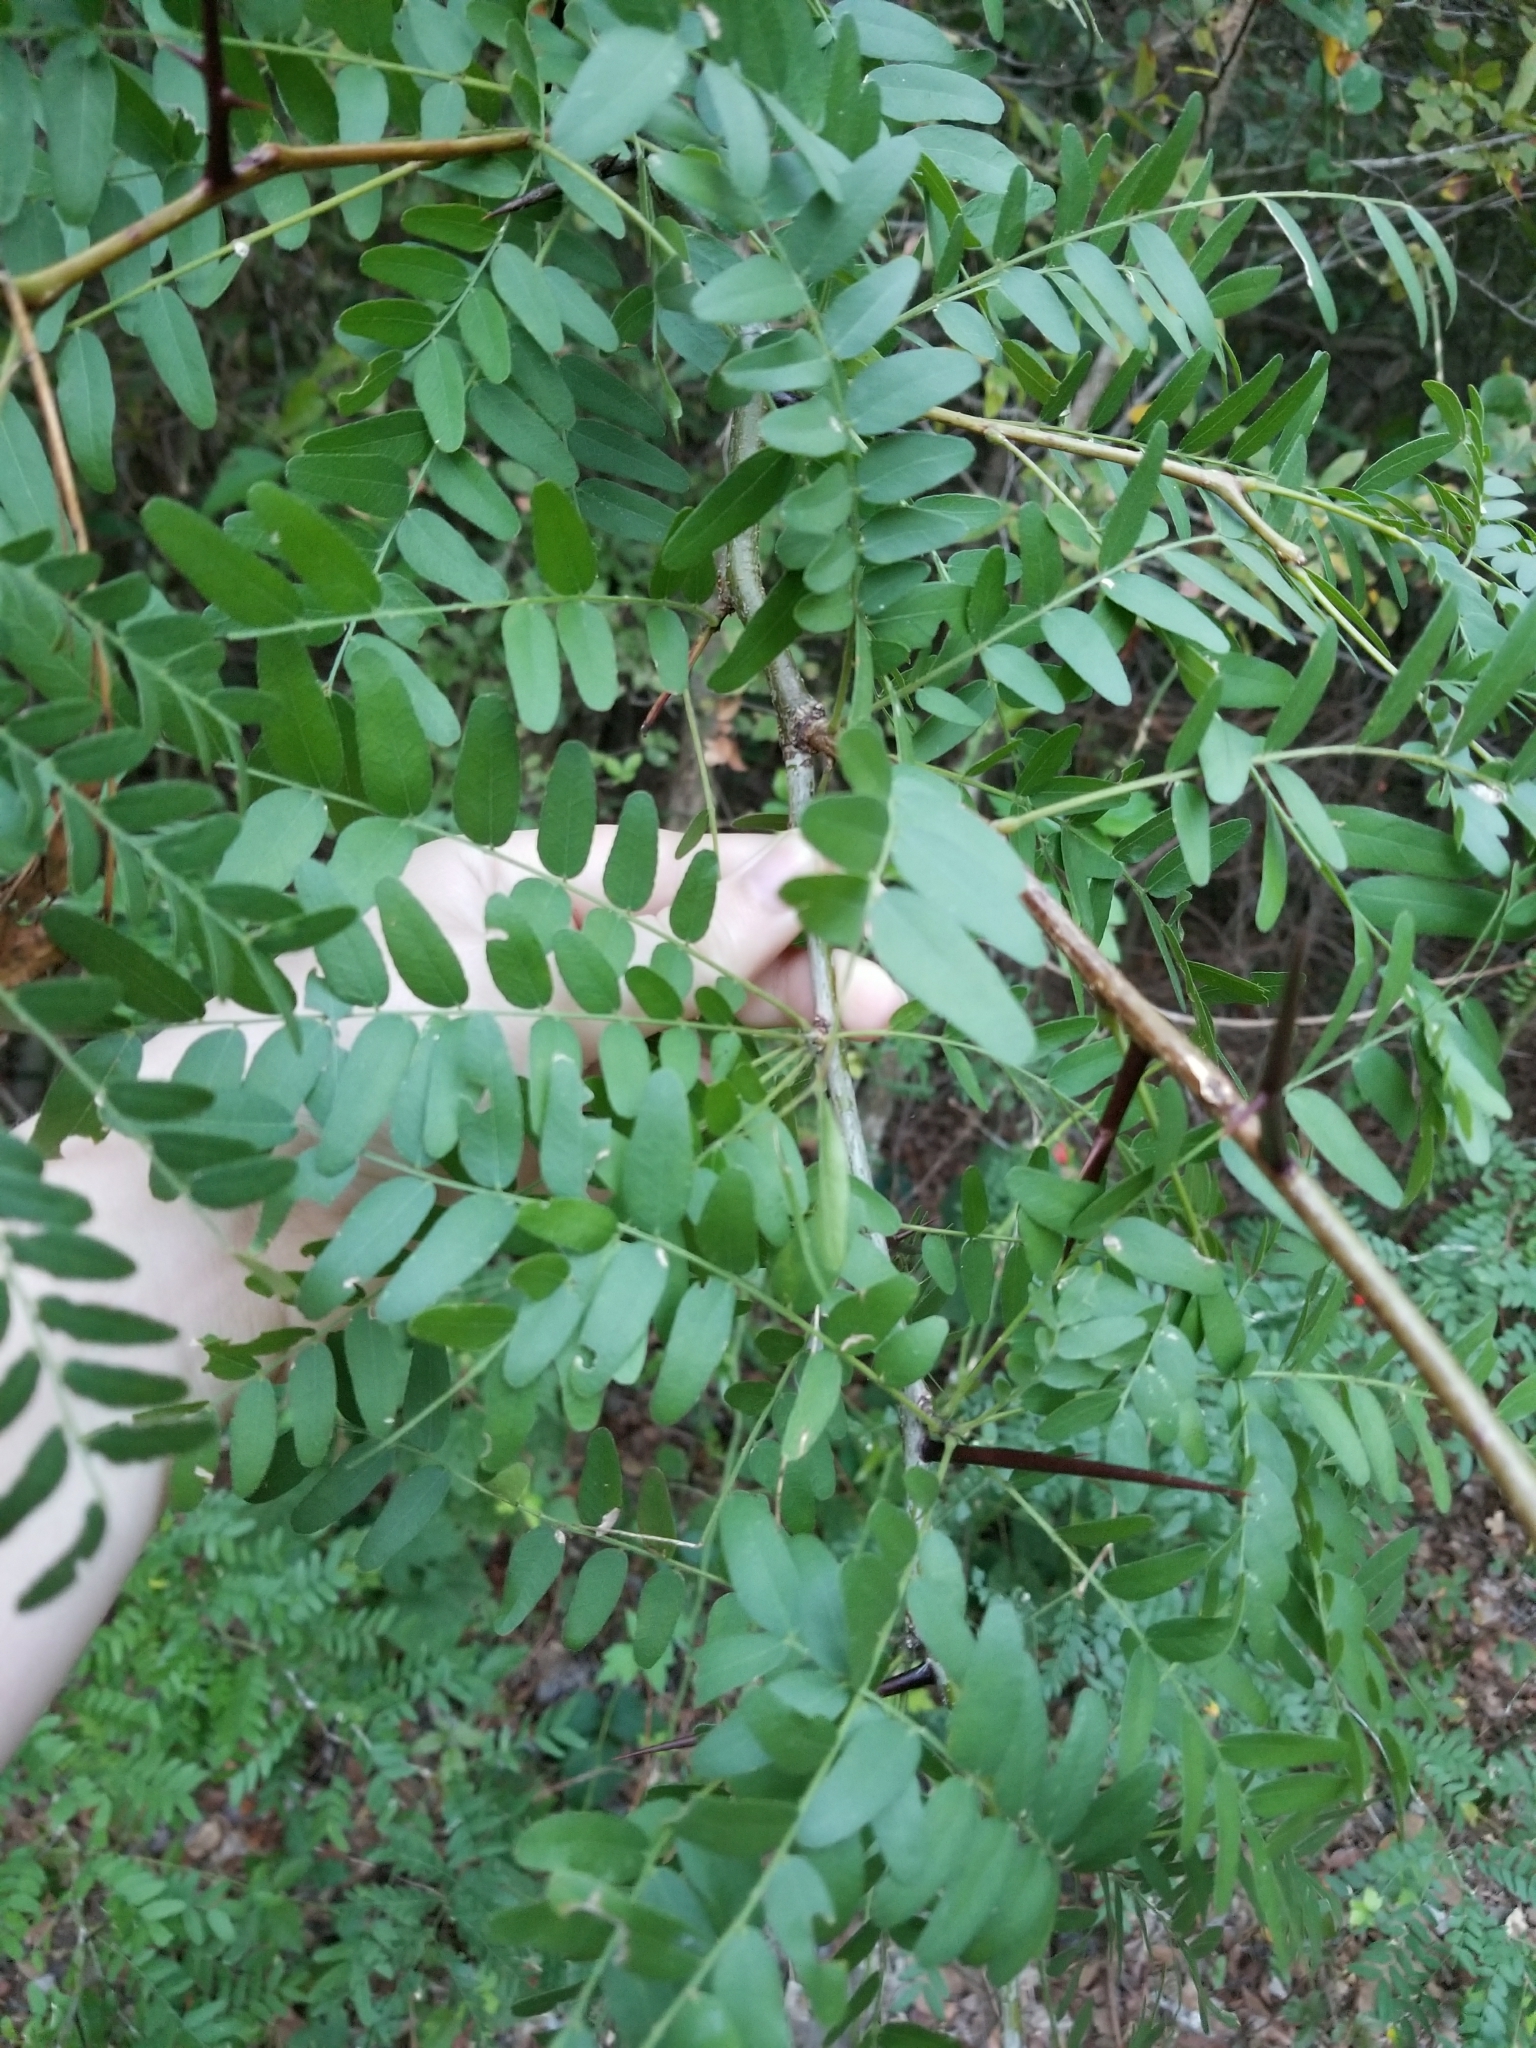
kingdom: Plantae
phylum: Tracheophyta
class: Magnoliopsida
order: Fabales
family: Fabaceae
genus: Gleditsia
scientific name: Gleditsia triacanthos
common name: Common honeylocust
